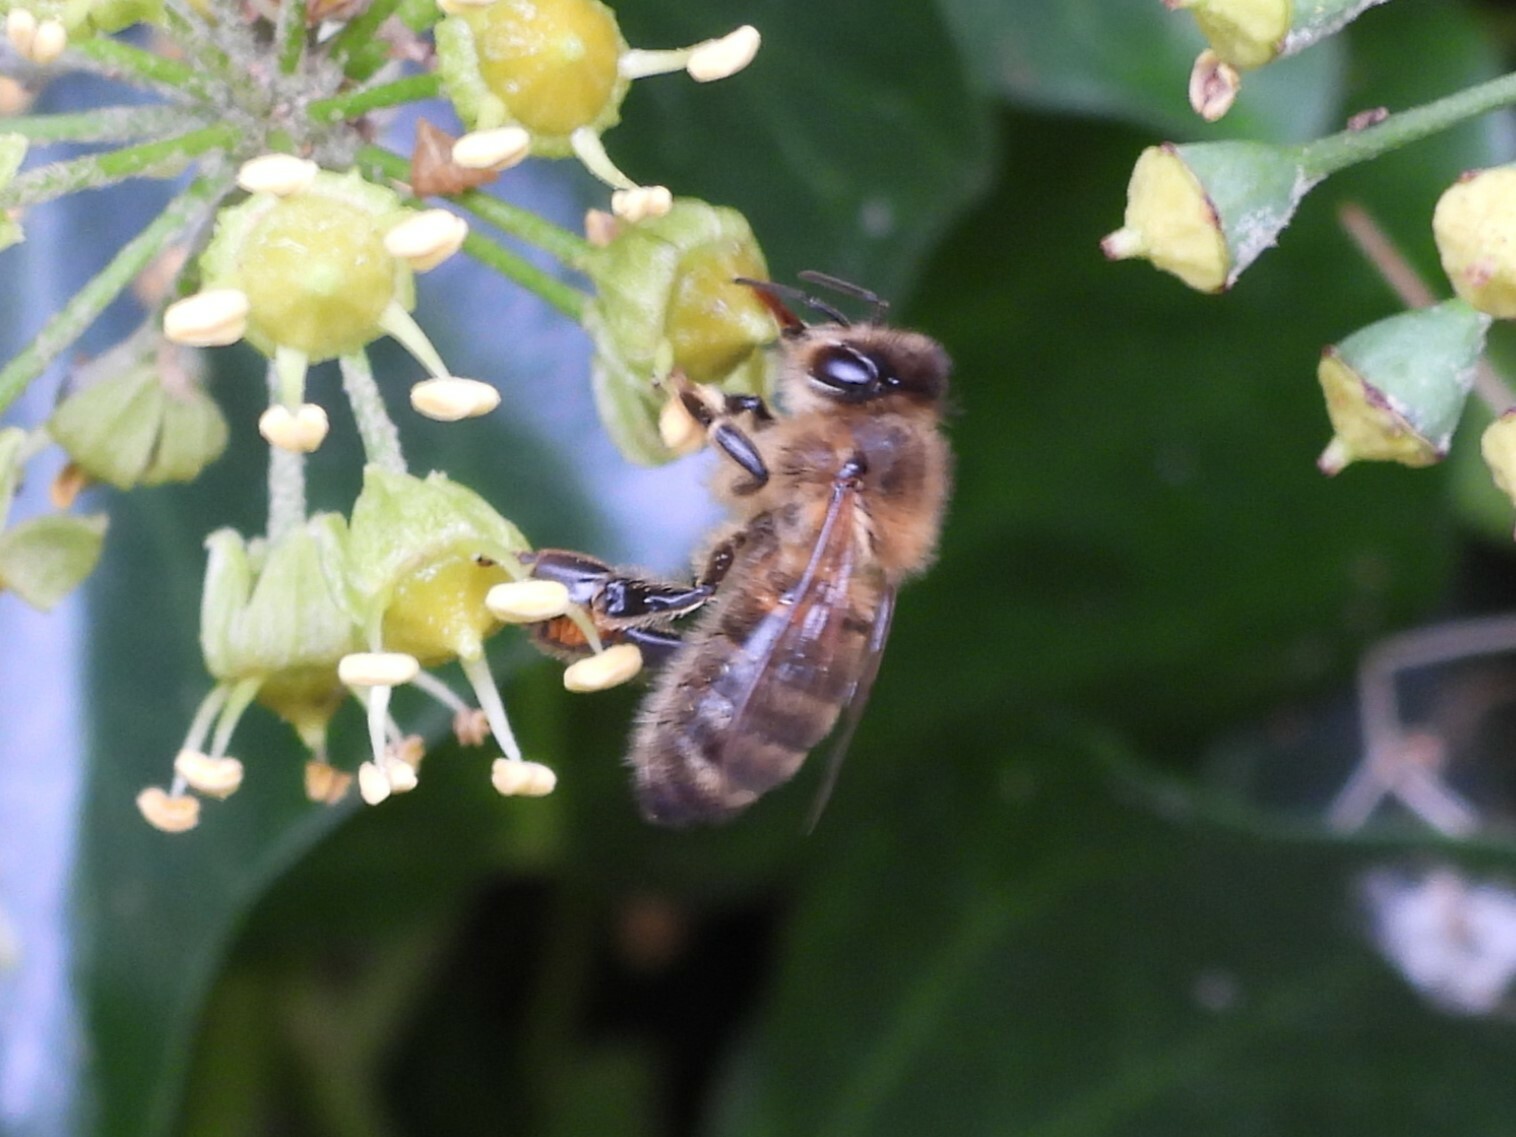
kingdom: Animalia
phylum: Arthropoda
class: Insecta
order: Hymenoptera
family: Apidae
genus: Apis
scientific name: Apis mellifera
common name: Honey bee
